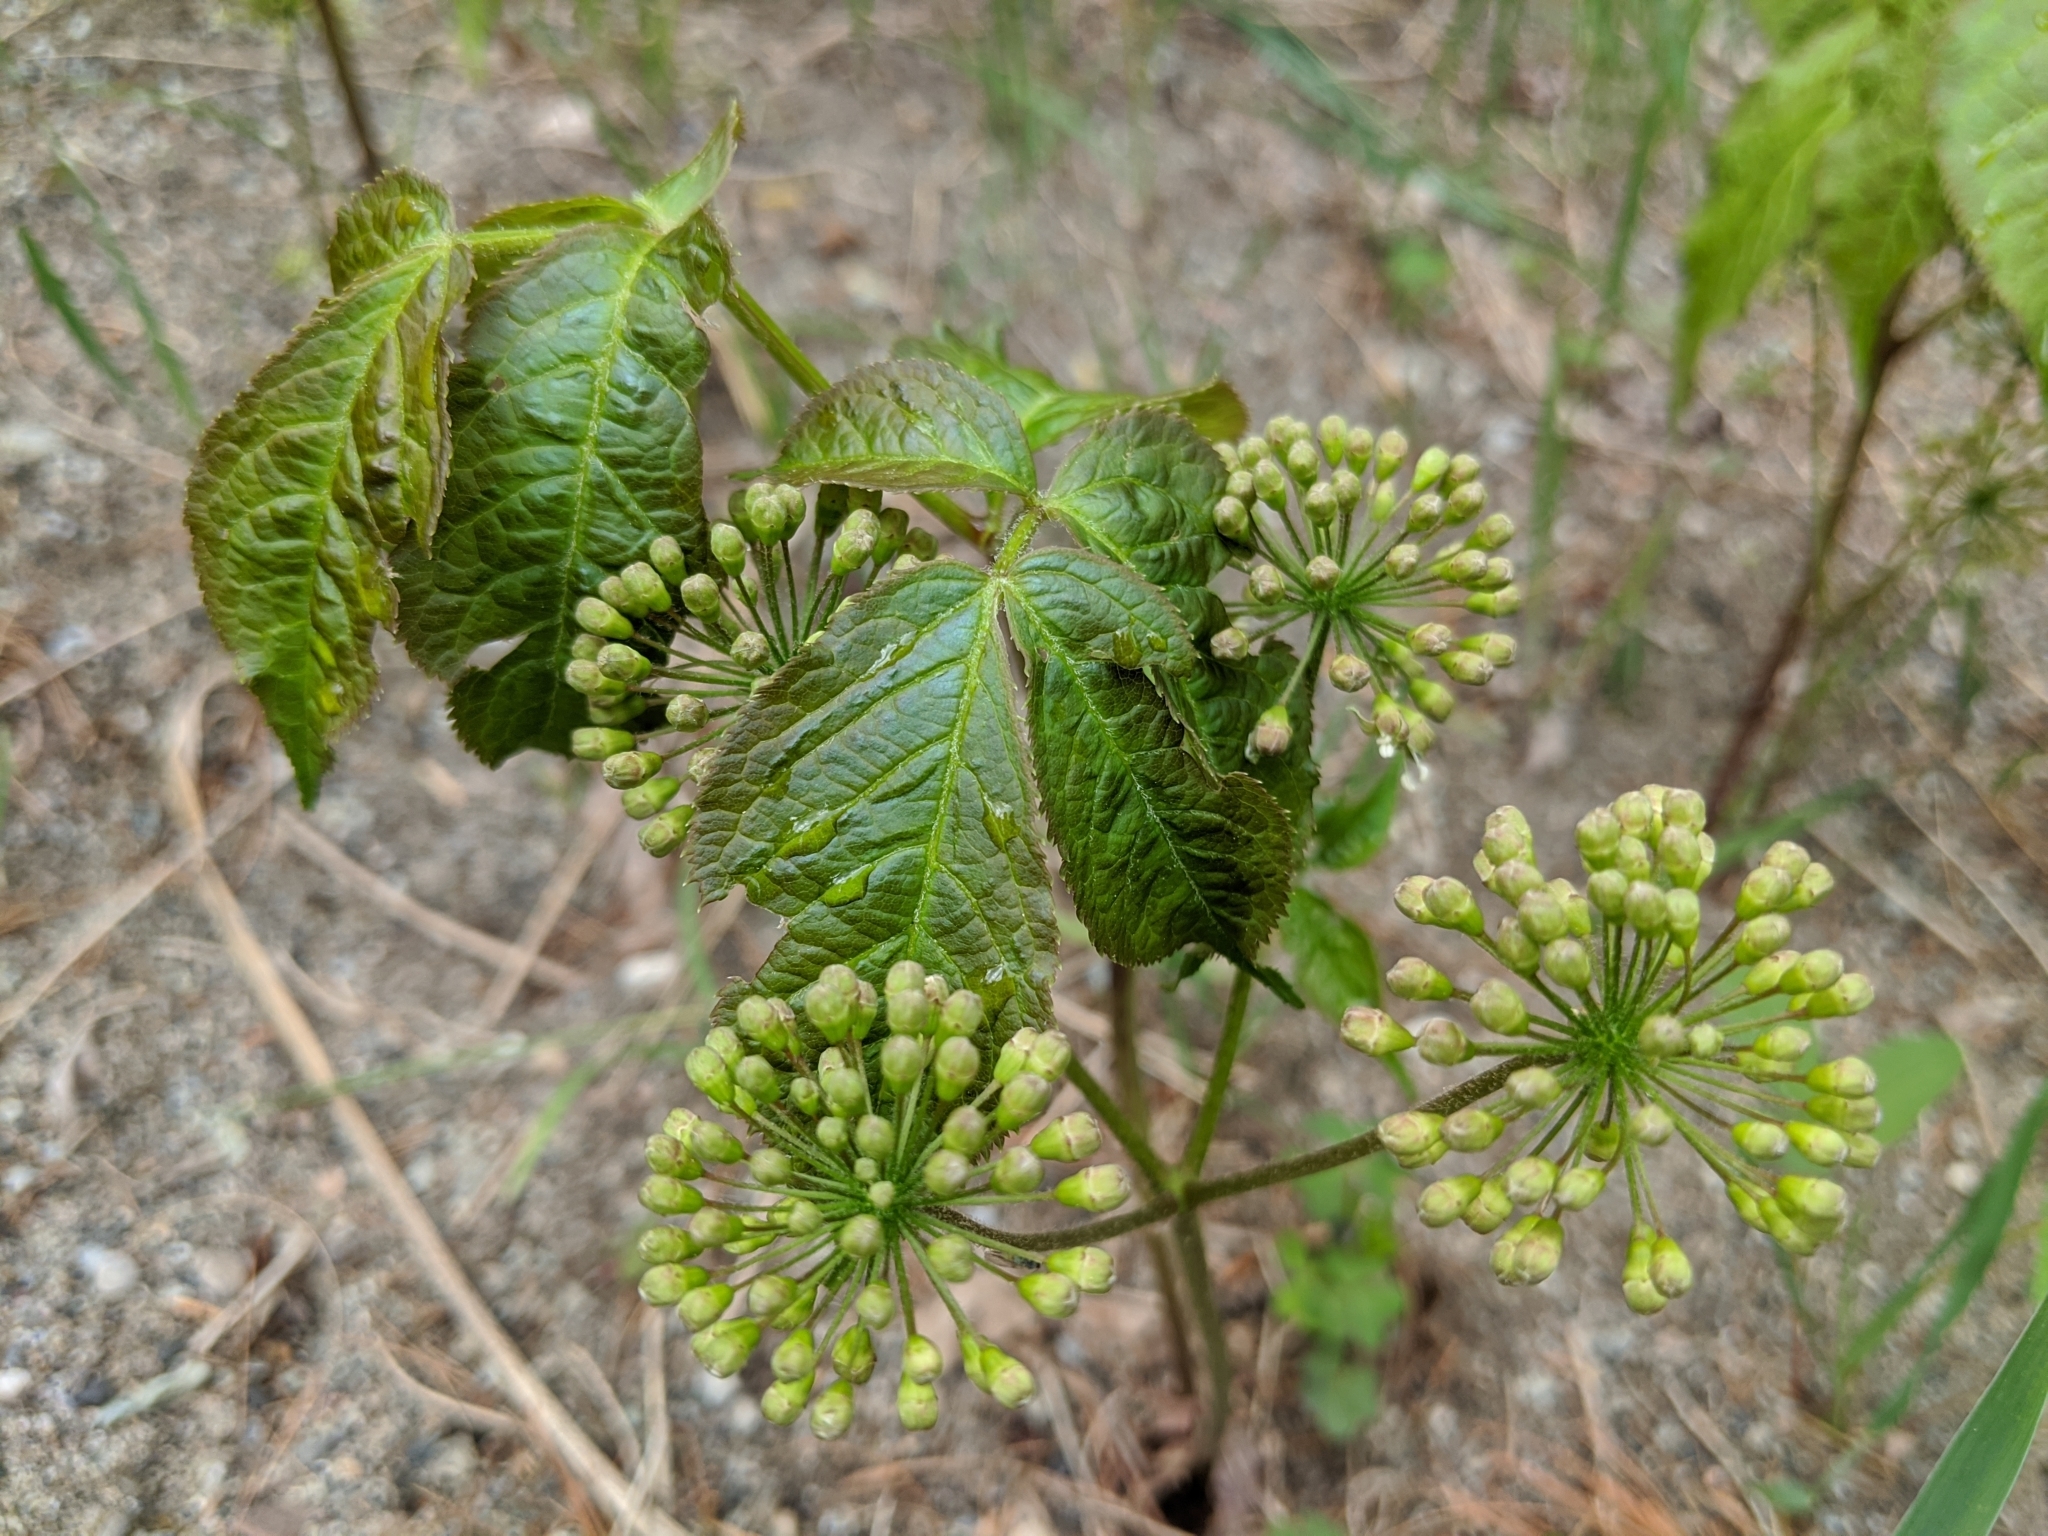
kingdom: Plantae
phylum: Tracheophyta
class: Magnoliopsida
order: Apiales
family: Araliaceae
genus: Aralia
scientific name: Aralia nudicaulis
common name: Wild sarsaparilla
